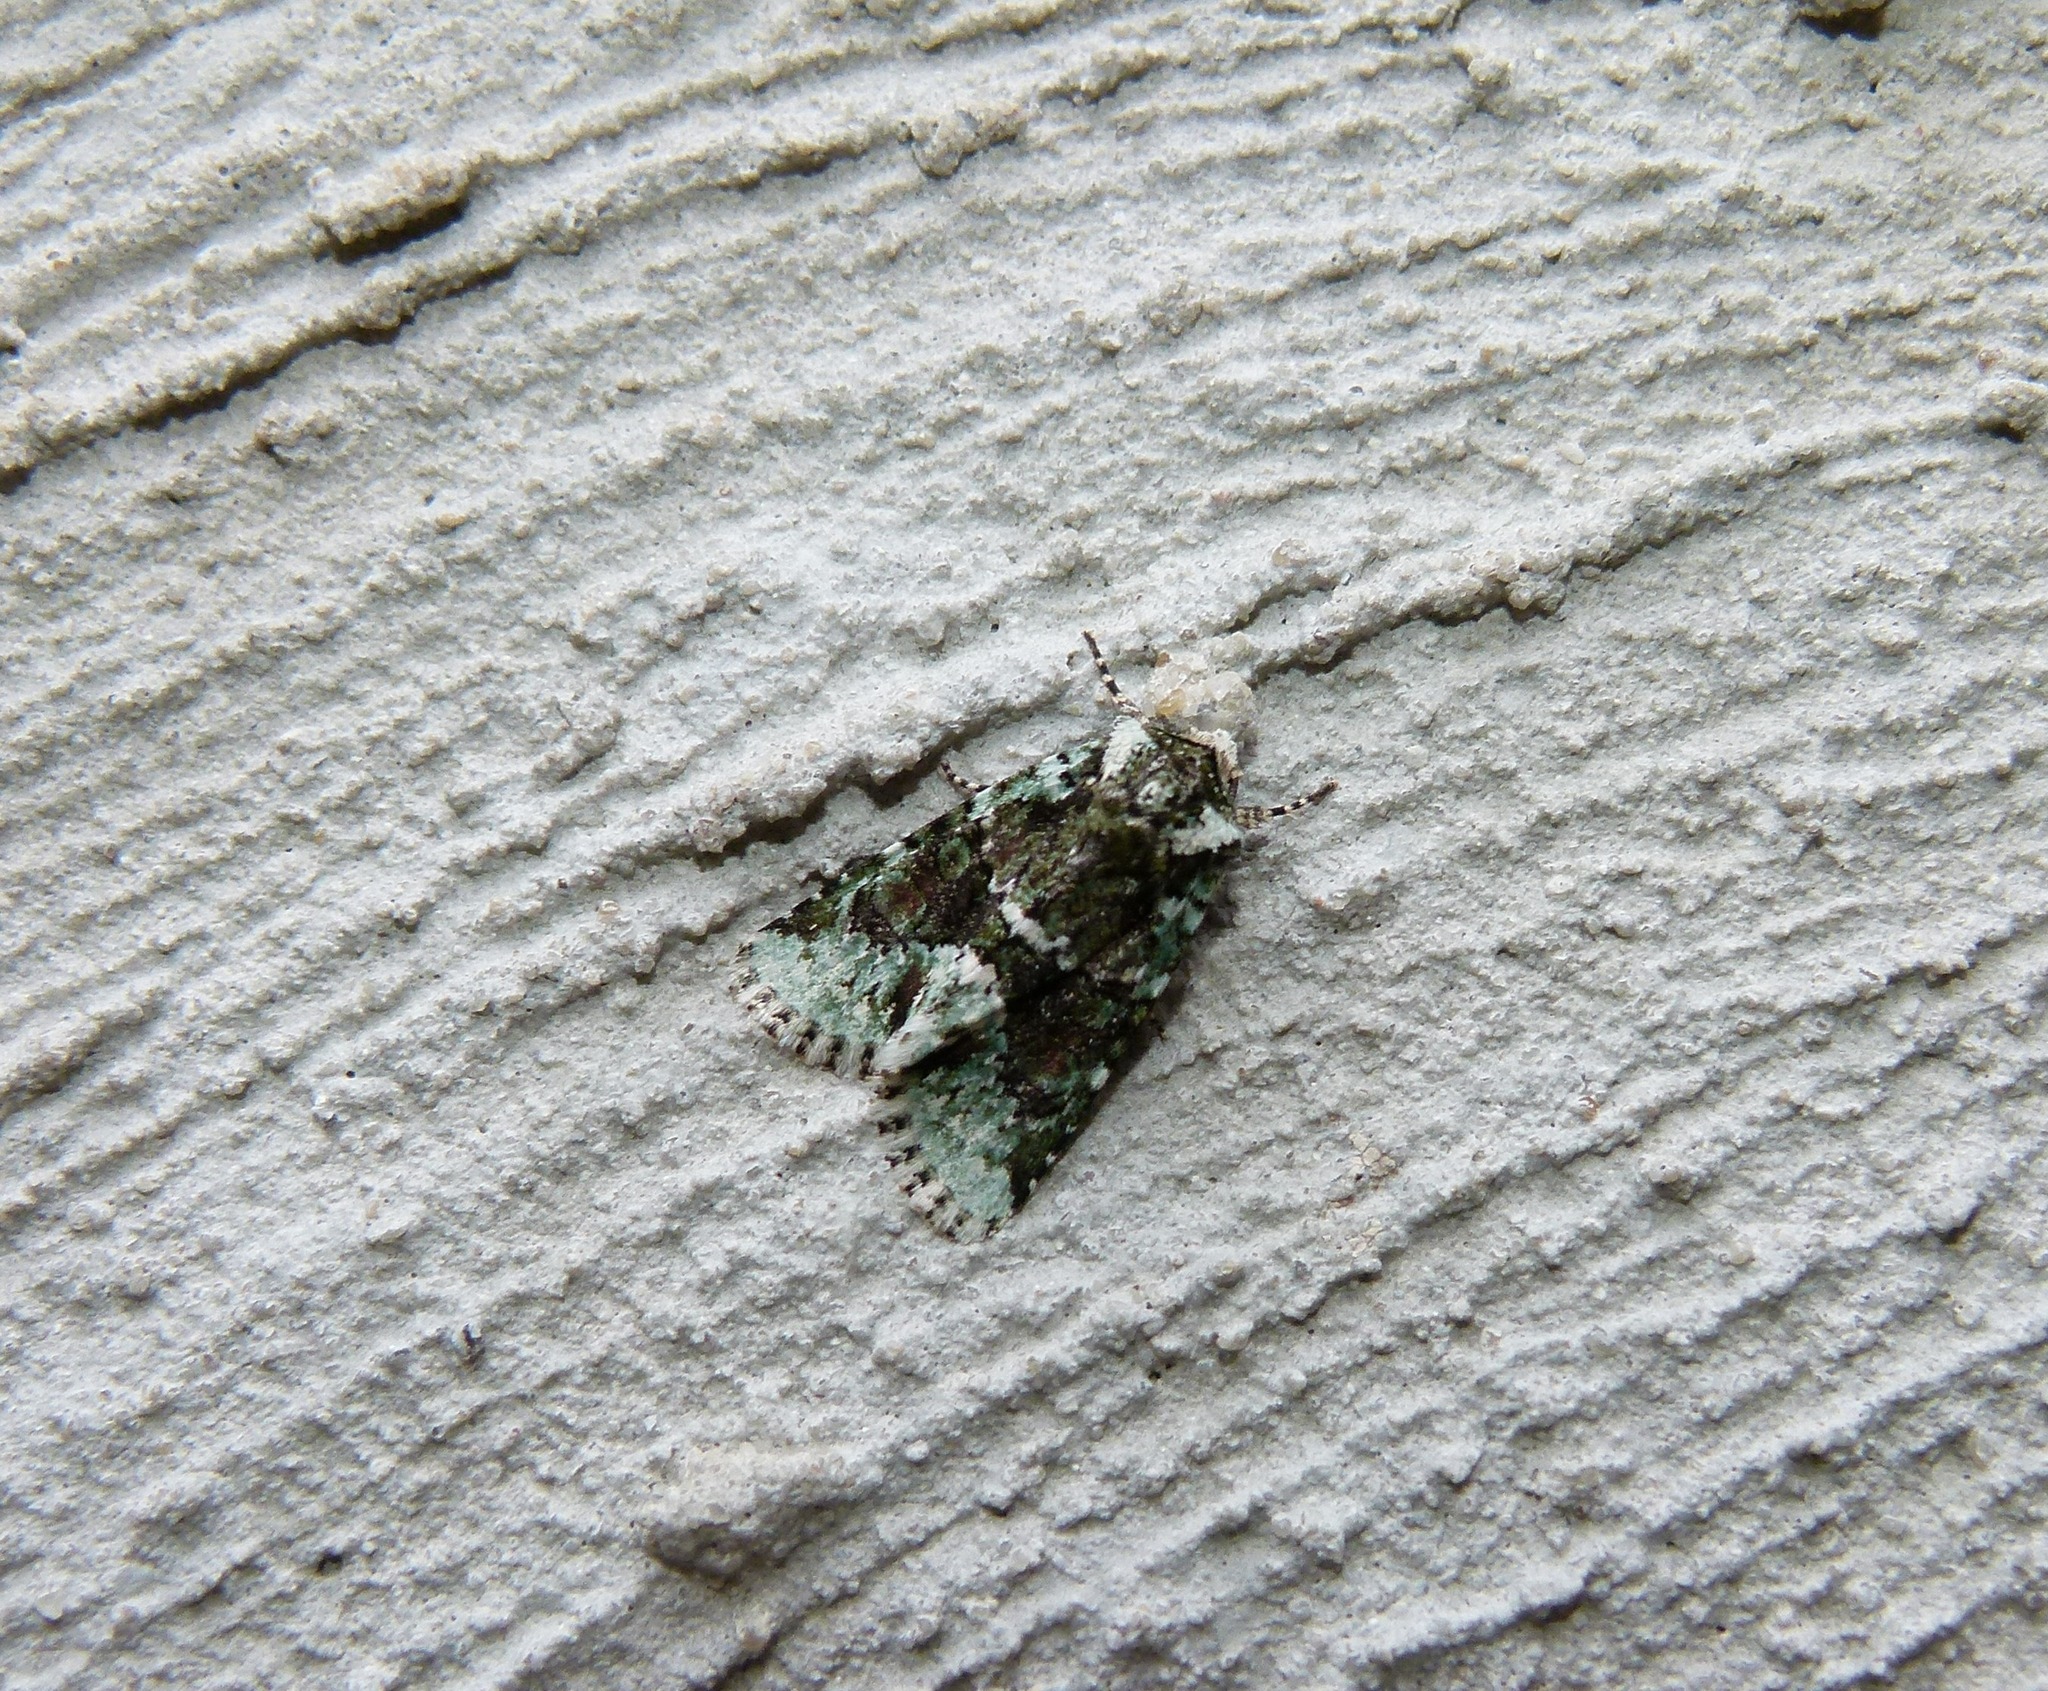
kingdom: Animalia
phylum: Arthropoda
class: Insecta
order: Lepidoptera
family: Noctuidae
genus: Lacinipolia
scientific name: Lacinipolia explicata
